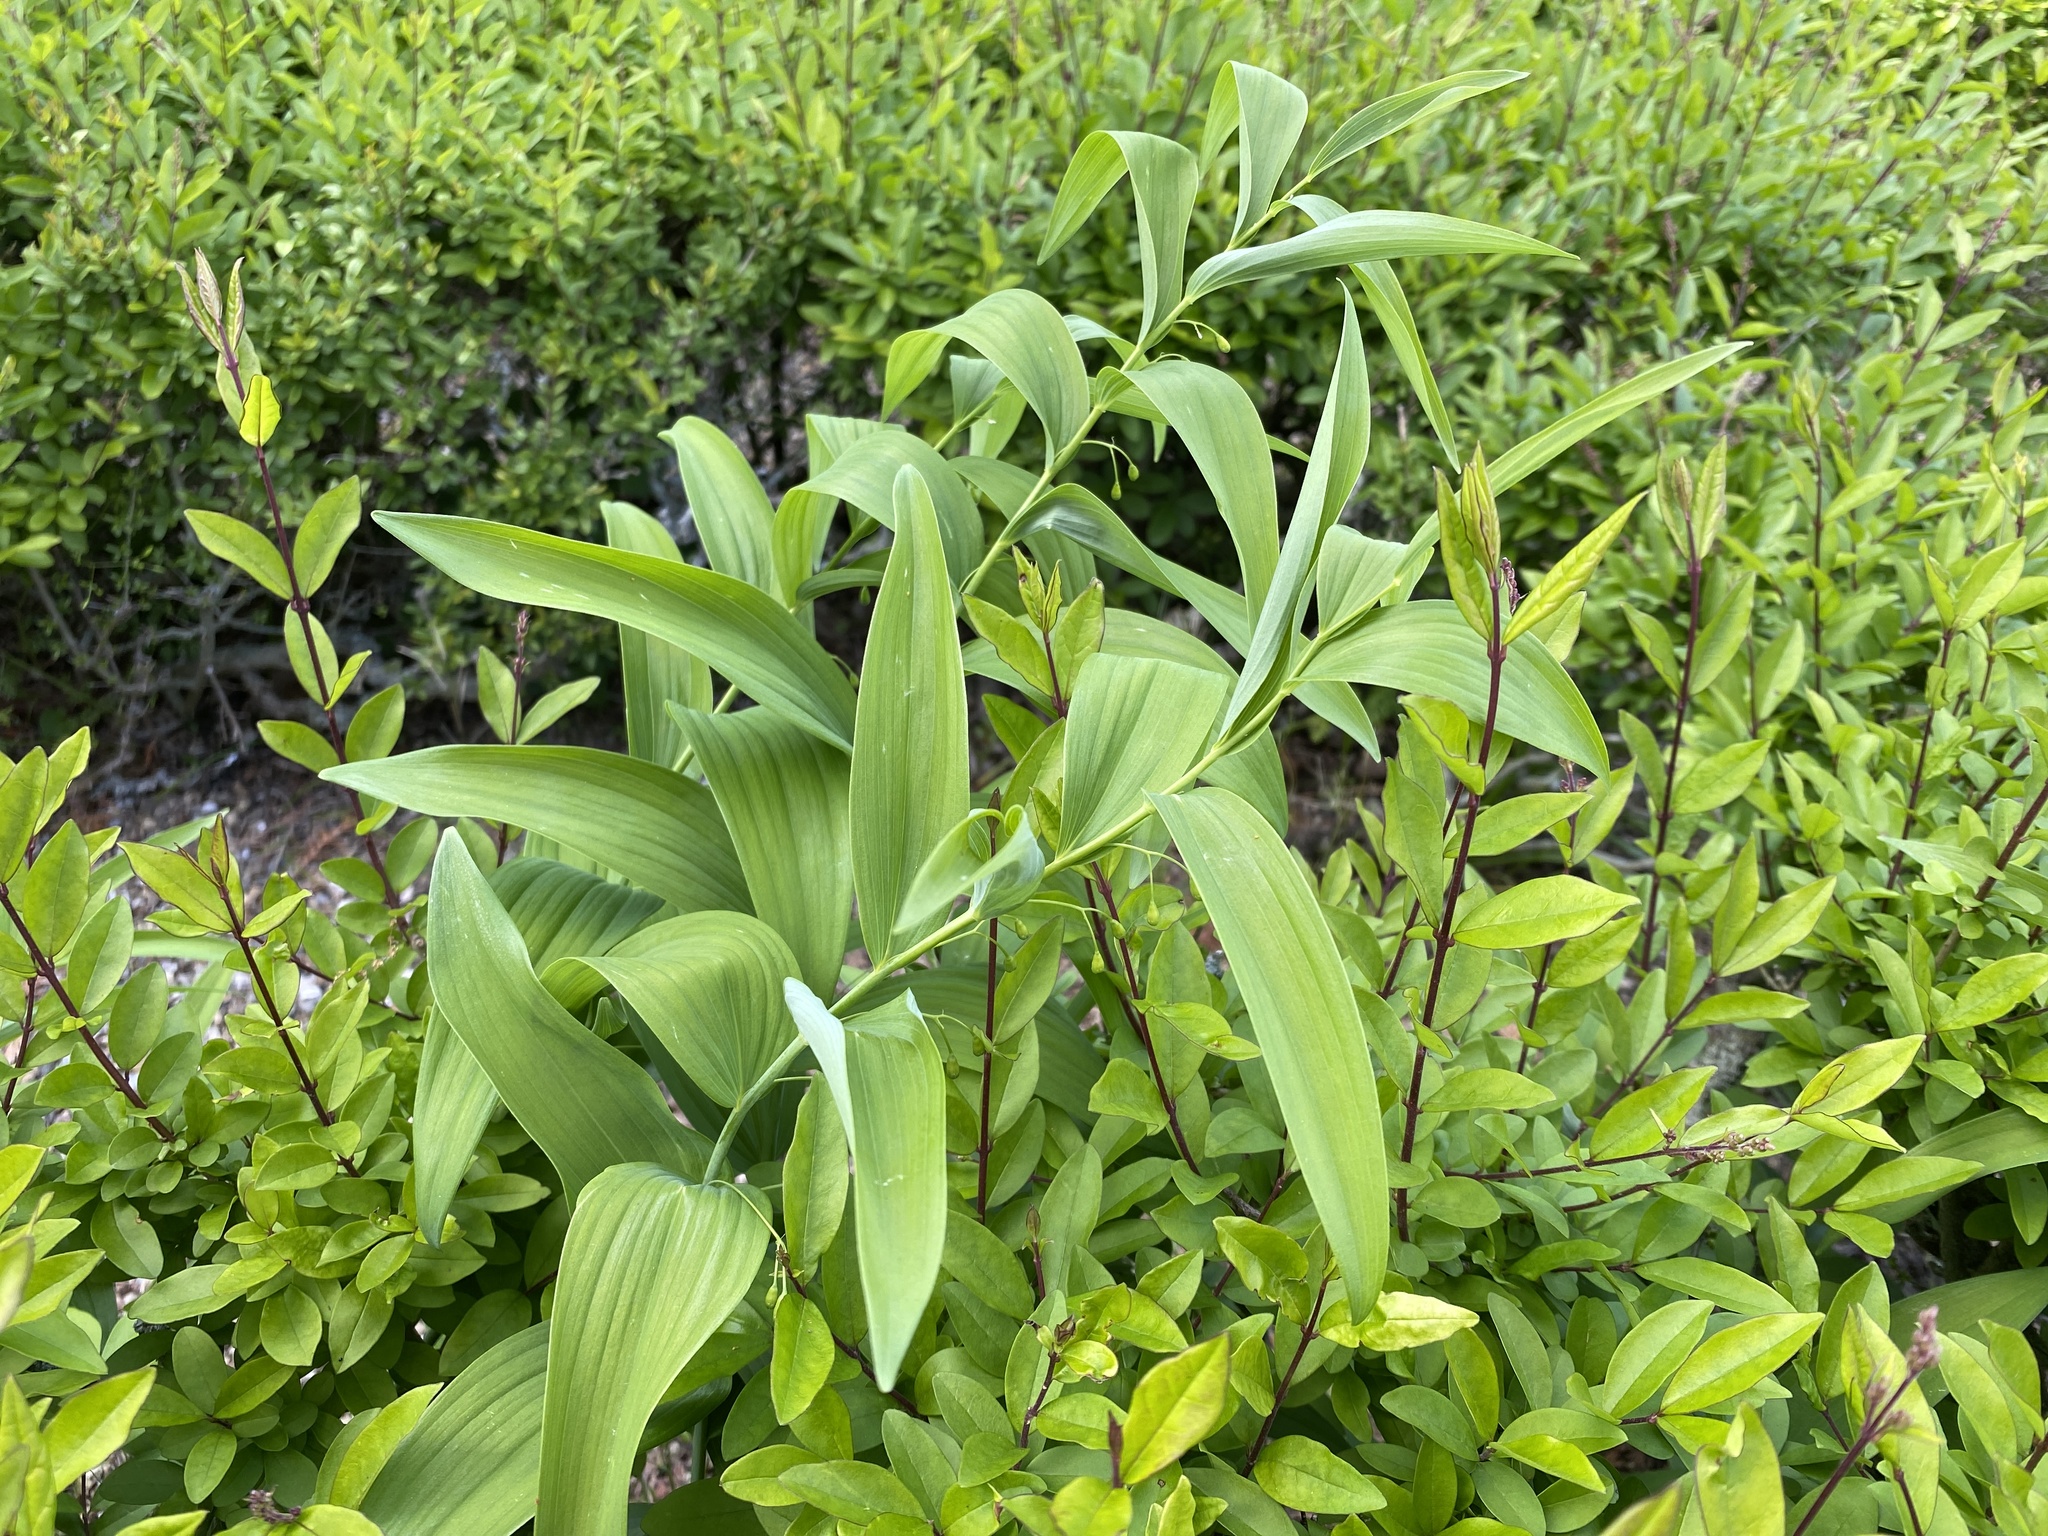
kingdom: Plantae
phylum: Tracheophyta
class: Liliopsida
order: Asparagales
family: Asparagaceae
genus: Polygonatum
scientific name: Polygonatum biflorum
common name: American solomon's-seal
